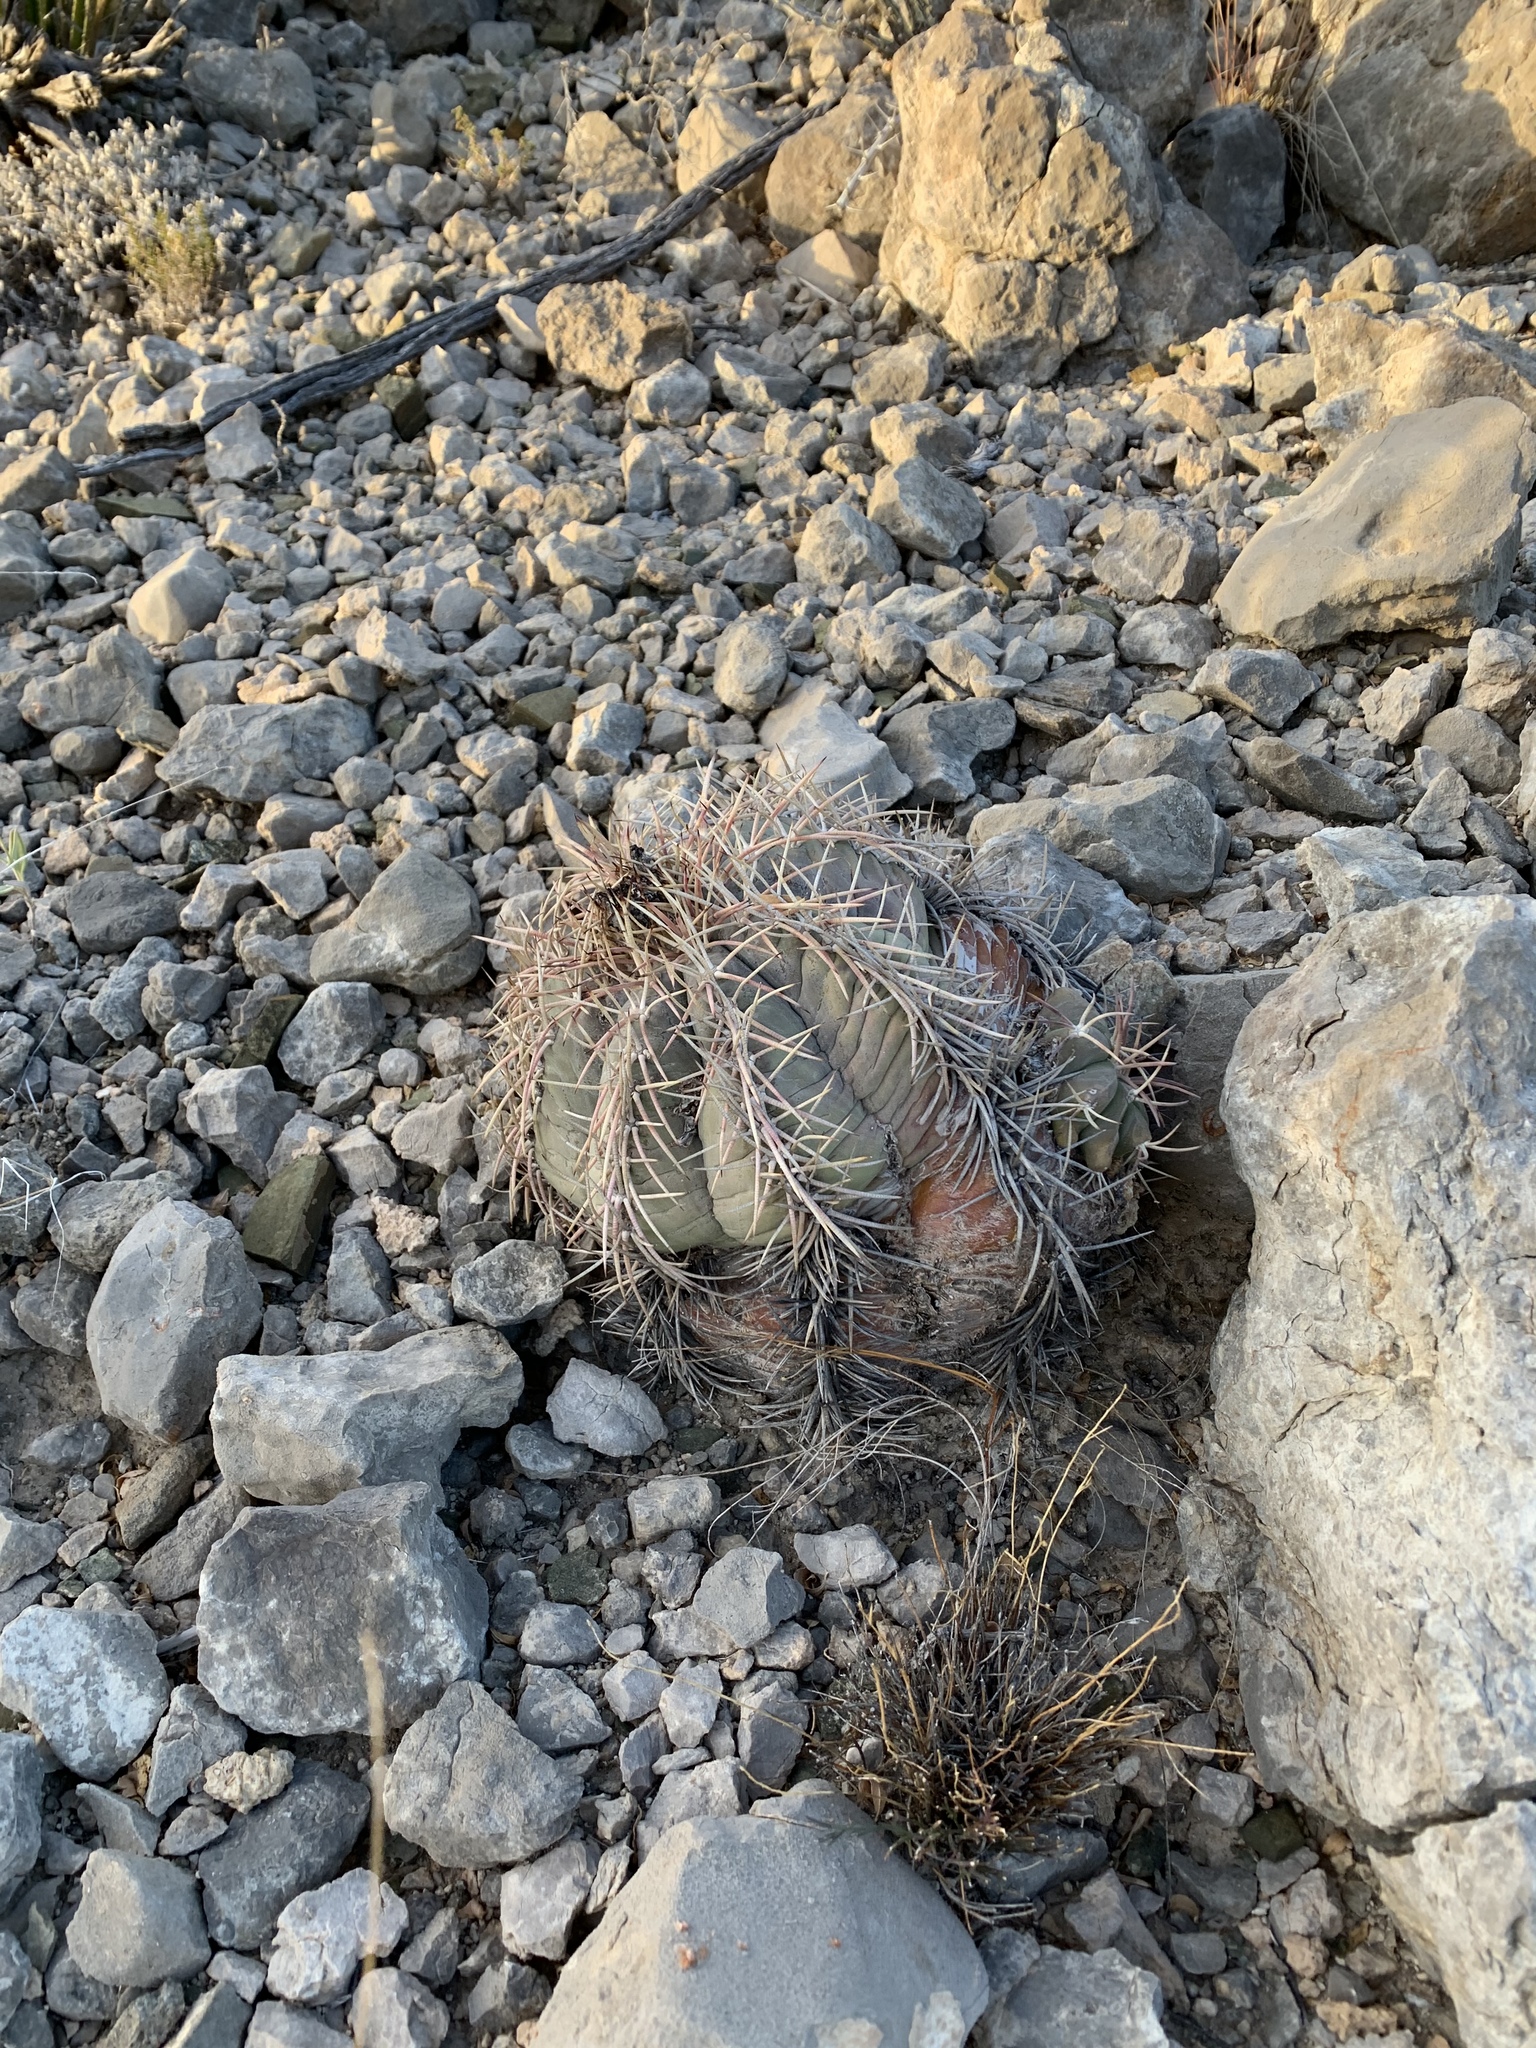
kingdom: Plantae
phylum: Tracheophyta
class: Magnoliopsida
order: Caryophyllales
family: Cactaceae
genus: Echinocactus
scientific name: Echinocactus horizonthalonius
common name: Devilshead
